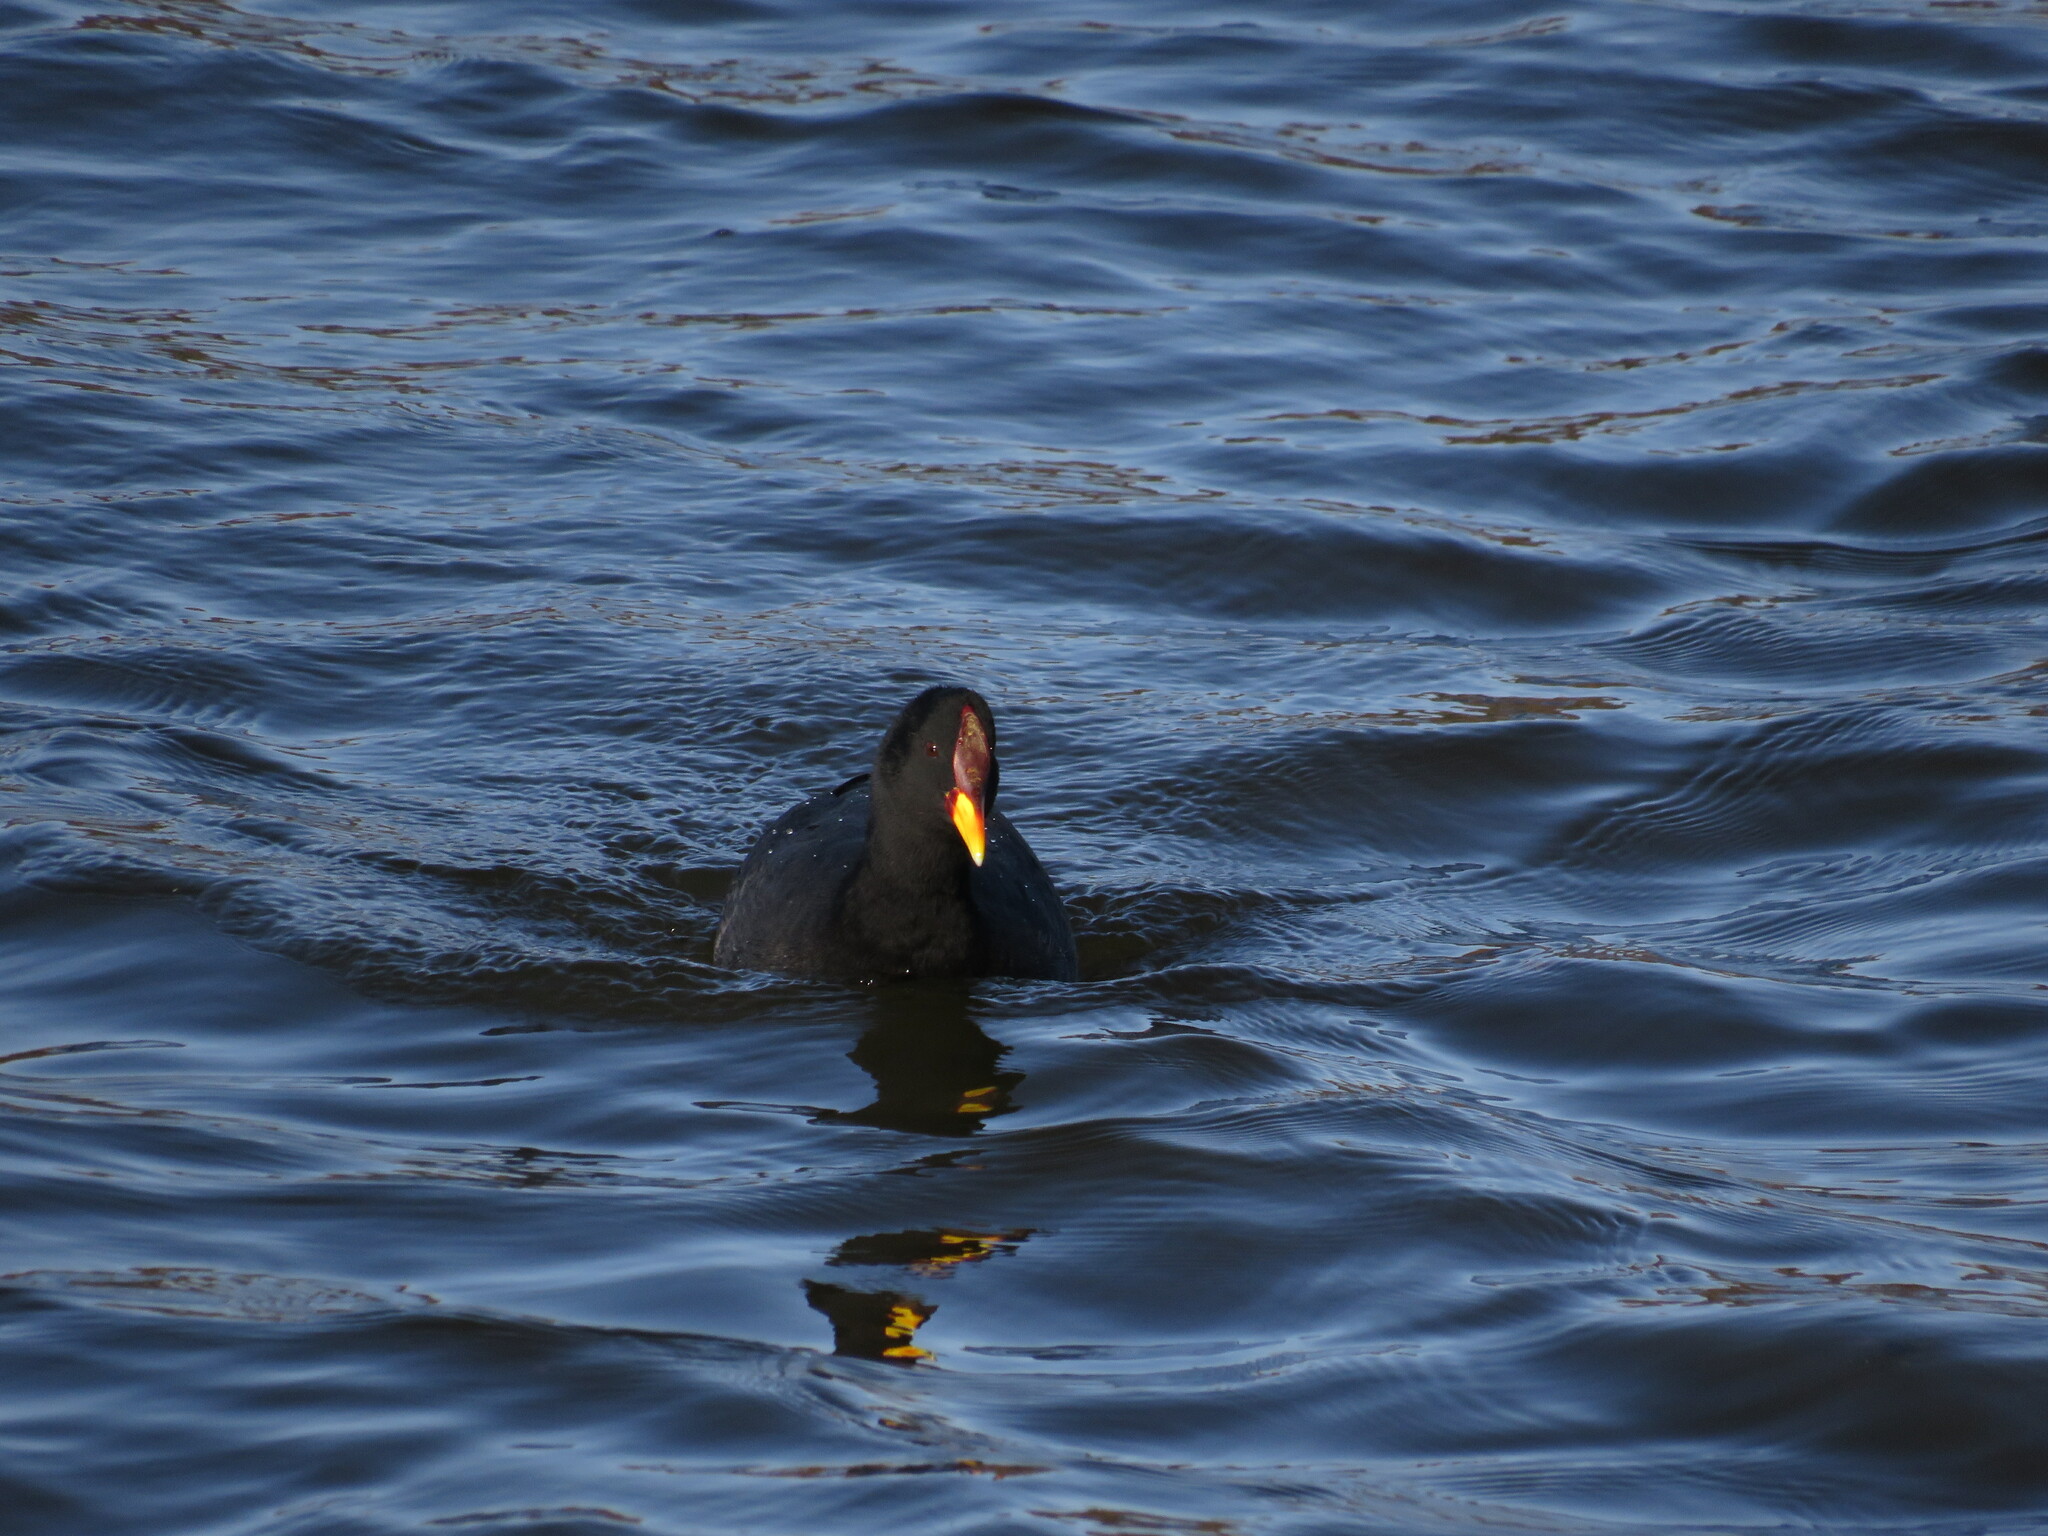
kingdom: Animalia
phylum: Chordata
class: Aves
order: Gruiformes
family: Rallidae
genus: Fulica
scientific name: Fulica rufifrons
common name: Red-fronted coot
